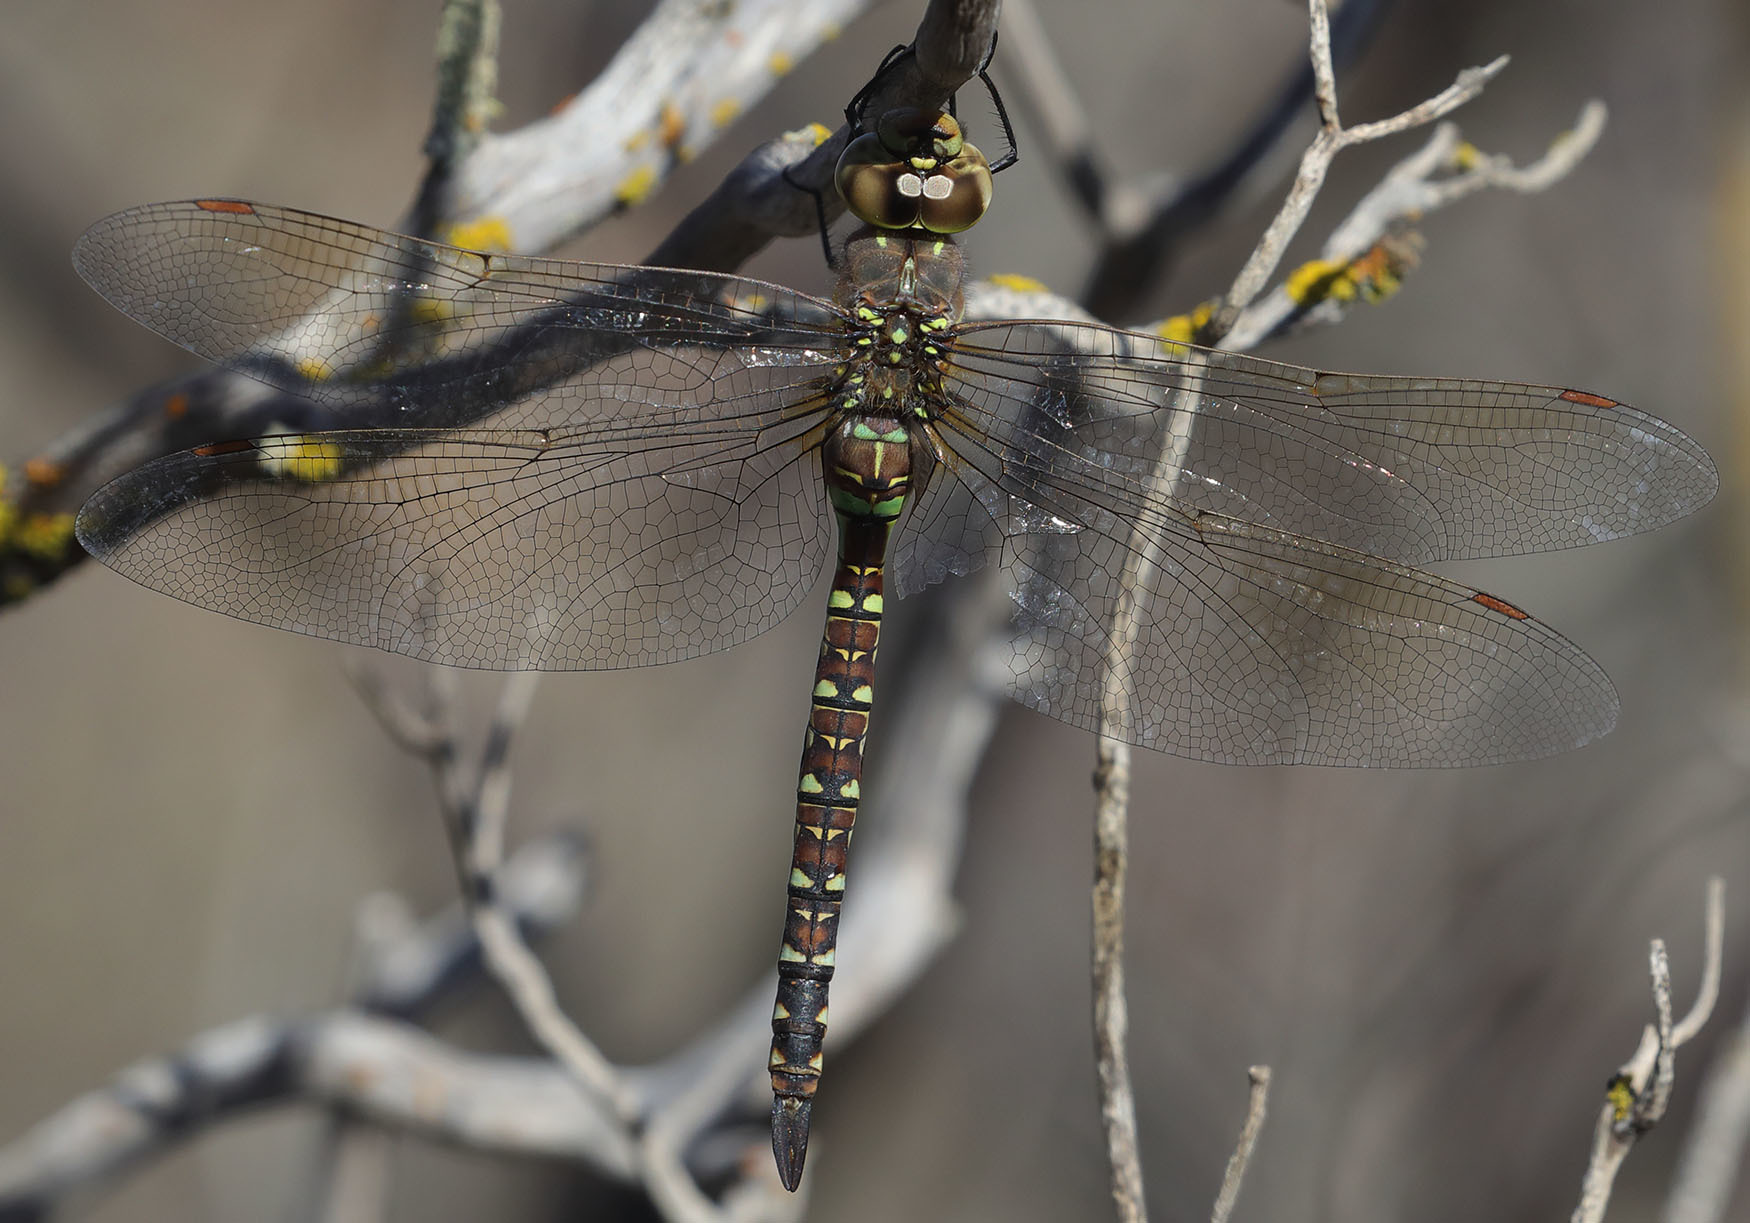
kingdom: Animalia
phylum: Arthropoda
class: Insecta
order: Odonata
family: Aeshnidae
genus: Rhionaeschna
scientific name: Rhionaeschna multicolor
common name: Blue-eyed darner
